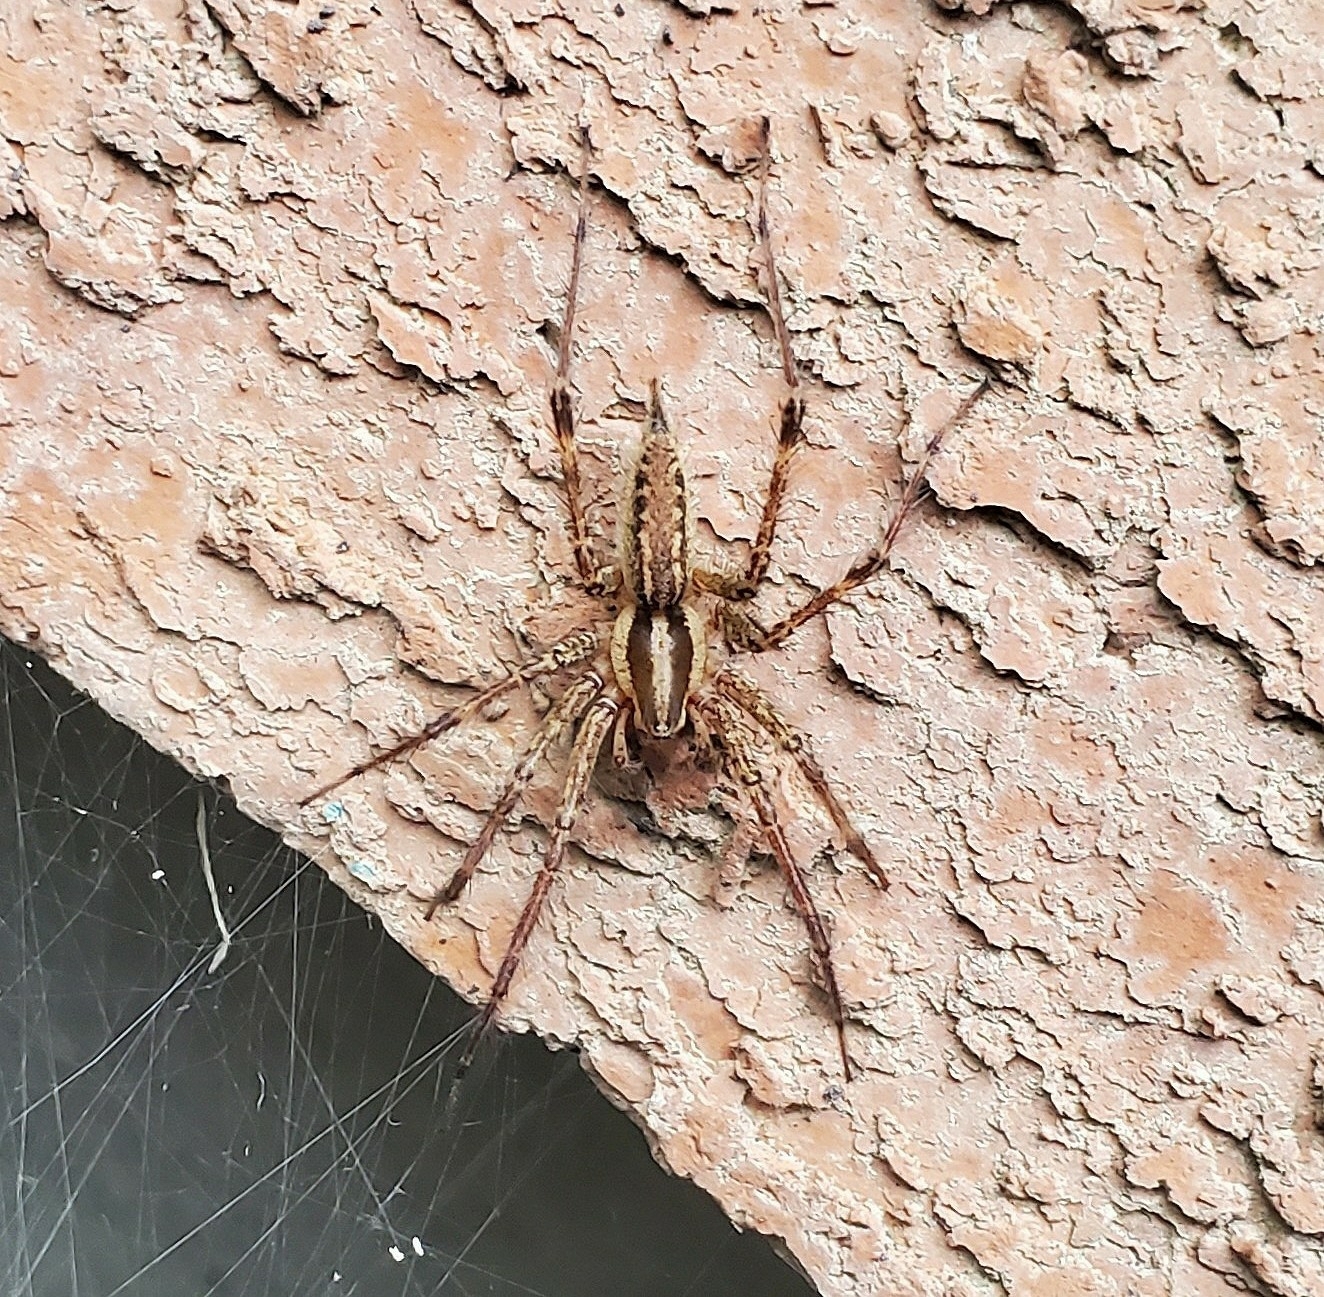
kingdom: Animalia
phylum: Arthropoda
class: Arachnida
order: Araneae
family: Agelenidae
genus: Agelenopsis
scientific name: Agelenopsis
